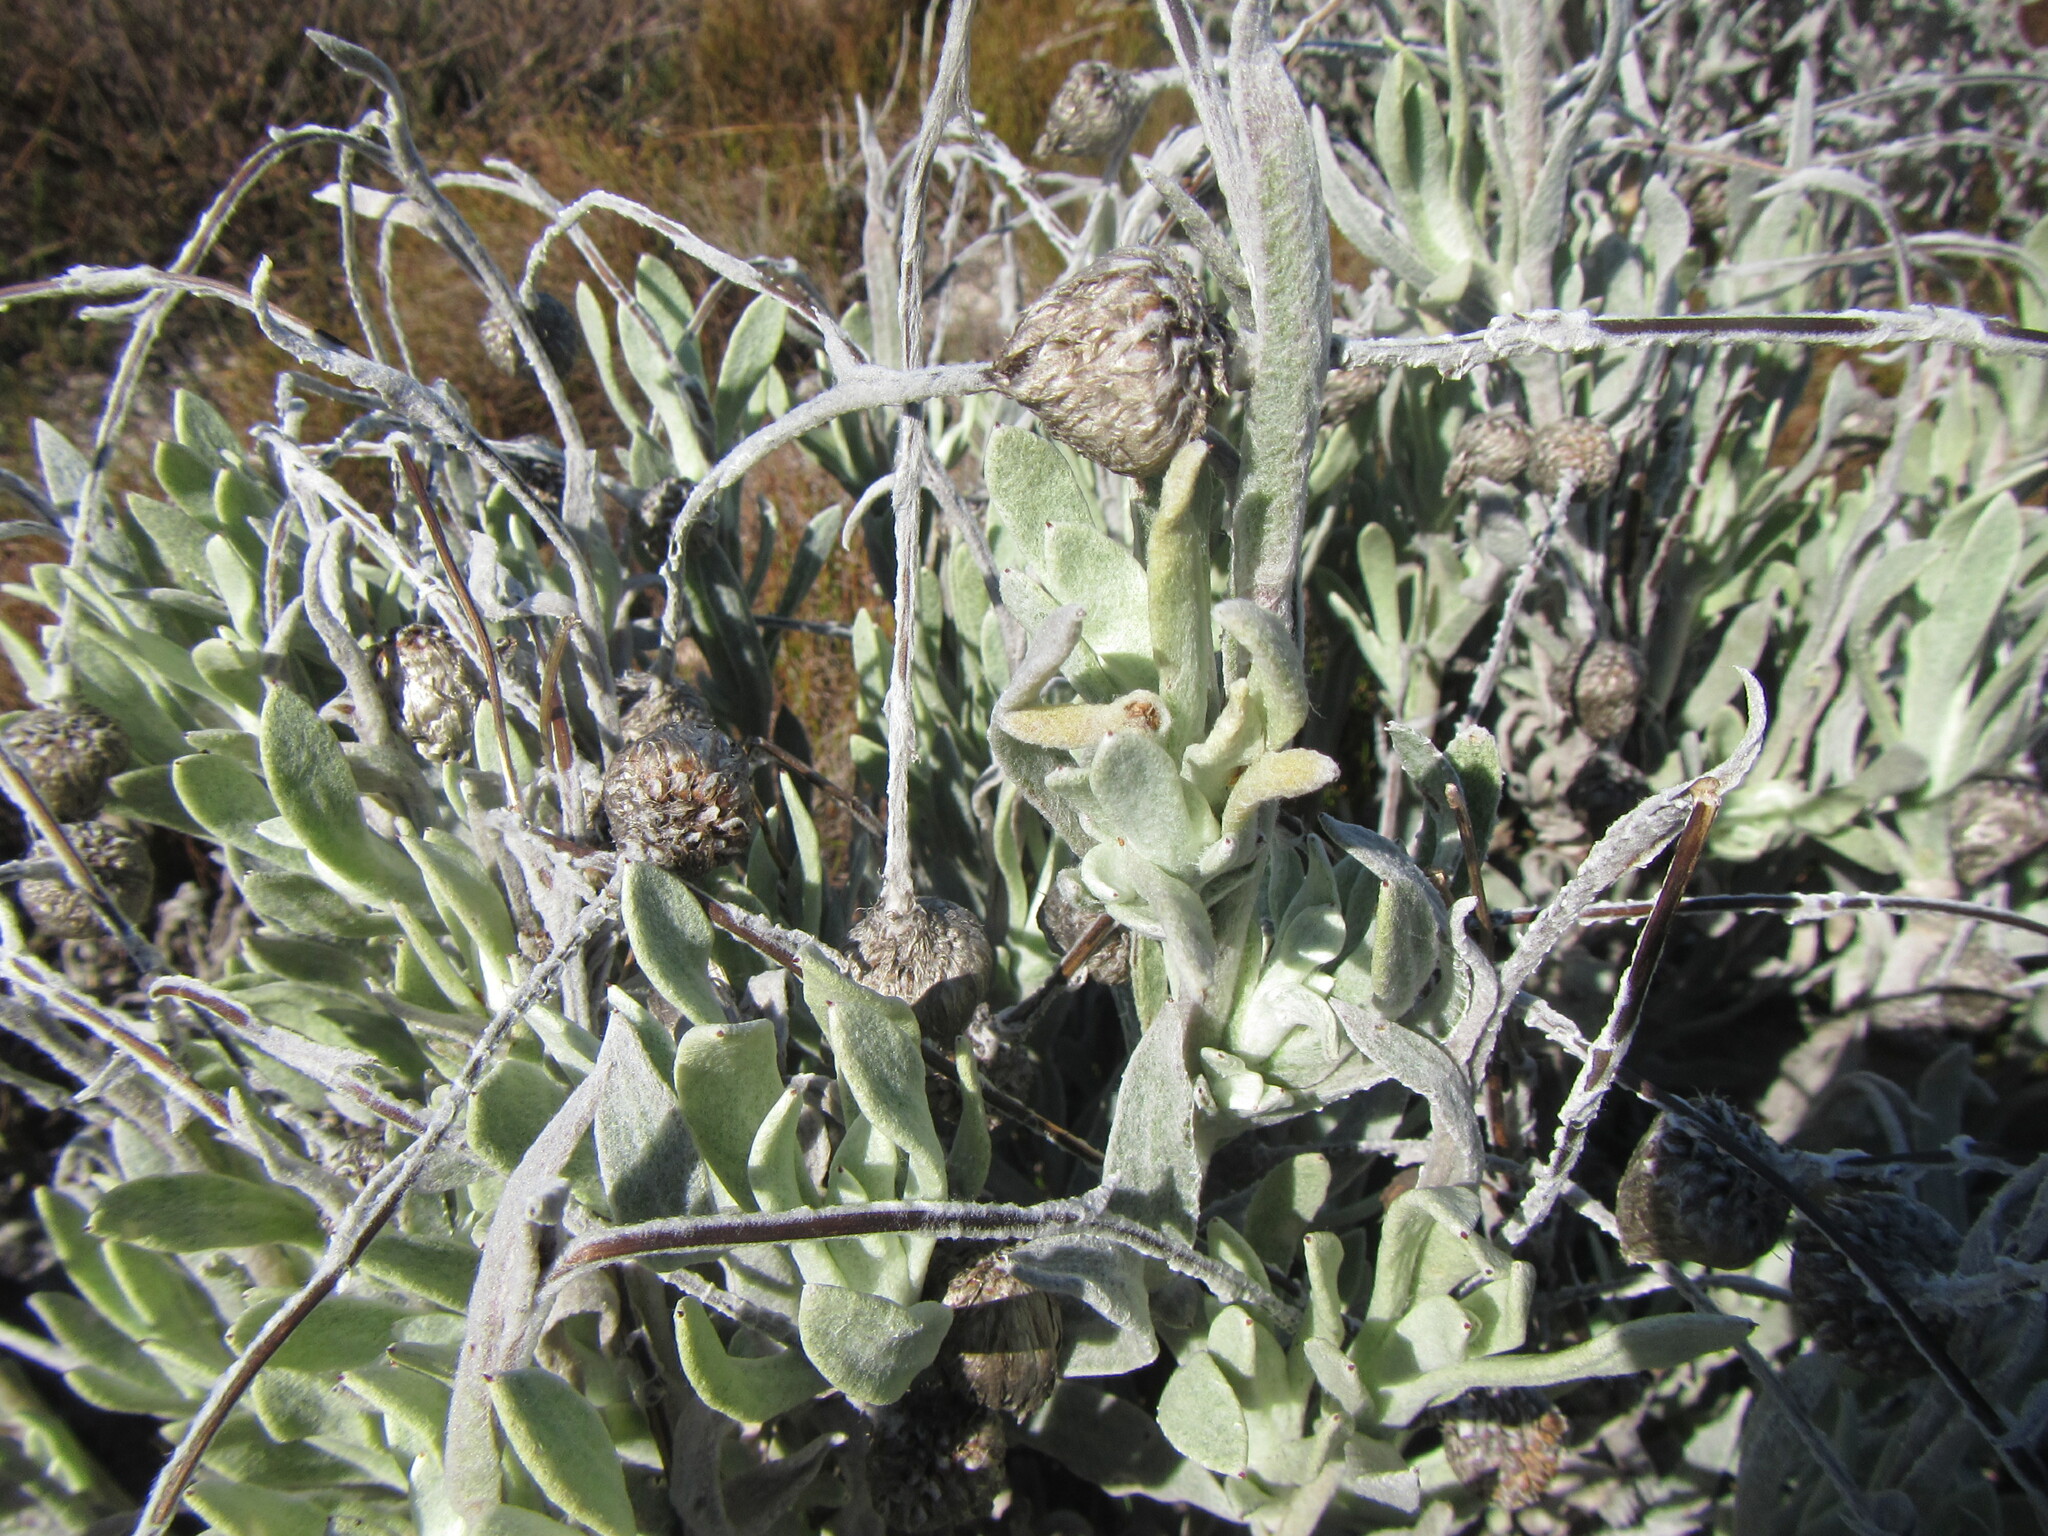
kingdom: Plantae
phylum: Tracheophyta
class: Magnoliopsida
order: Asterales
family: Asteraceae
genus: Syncarpha
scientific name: Syncarpha vestita
